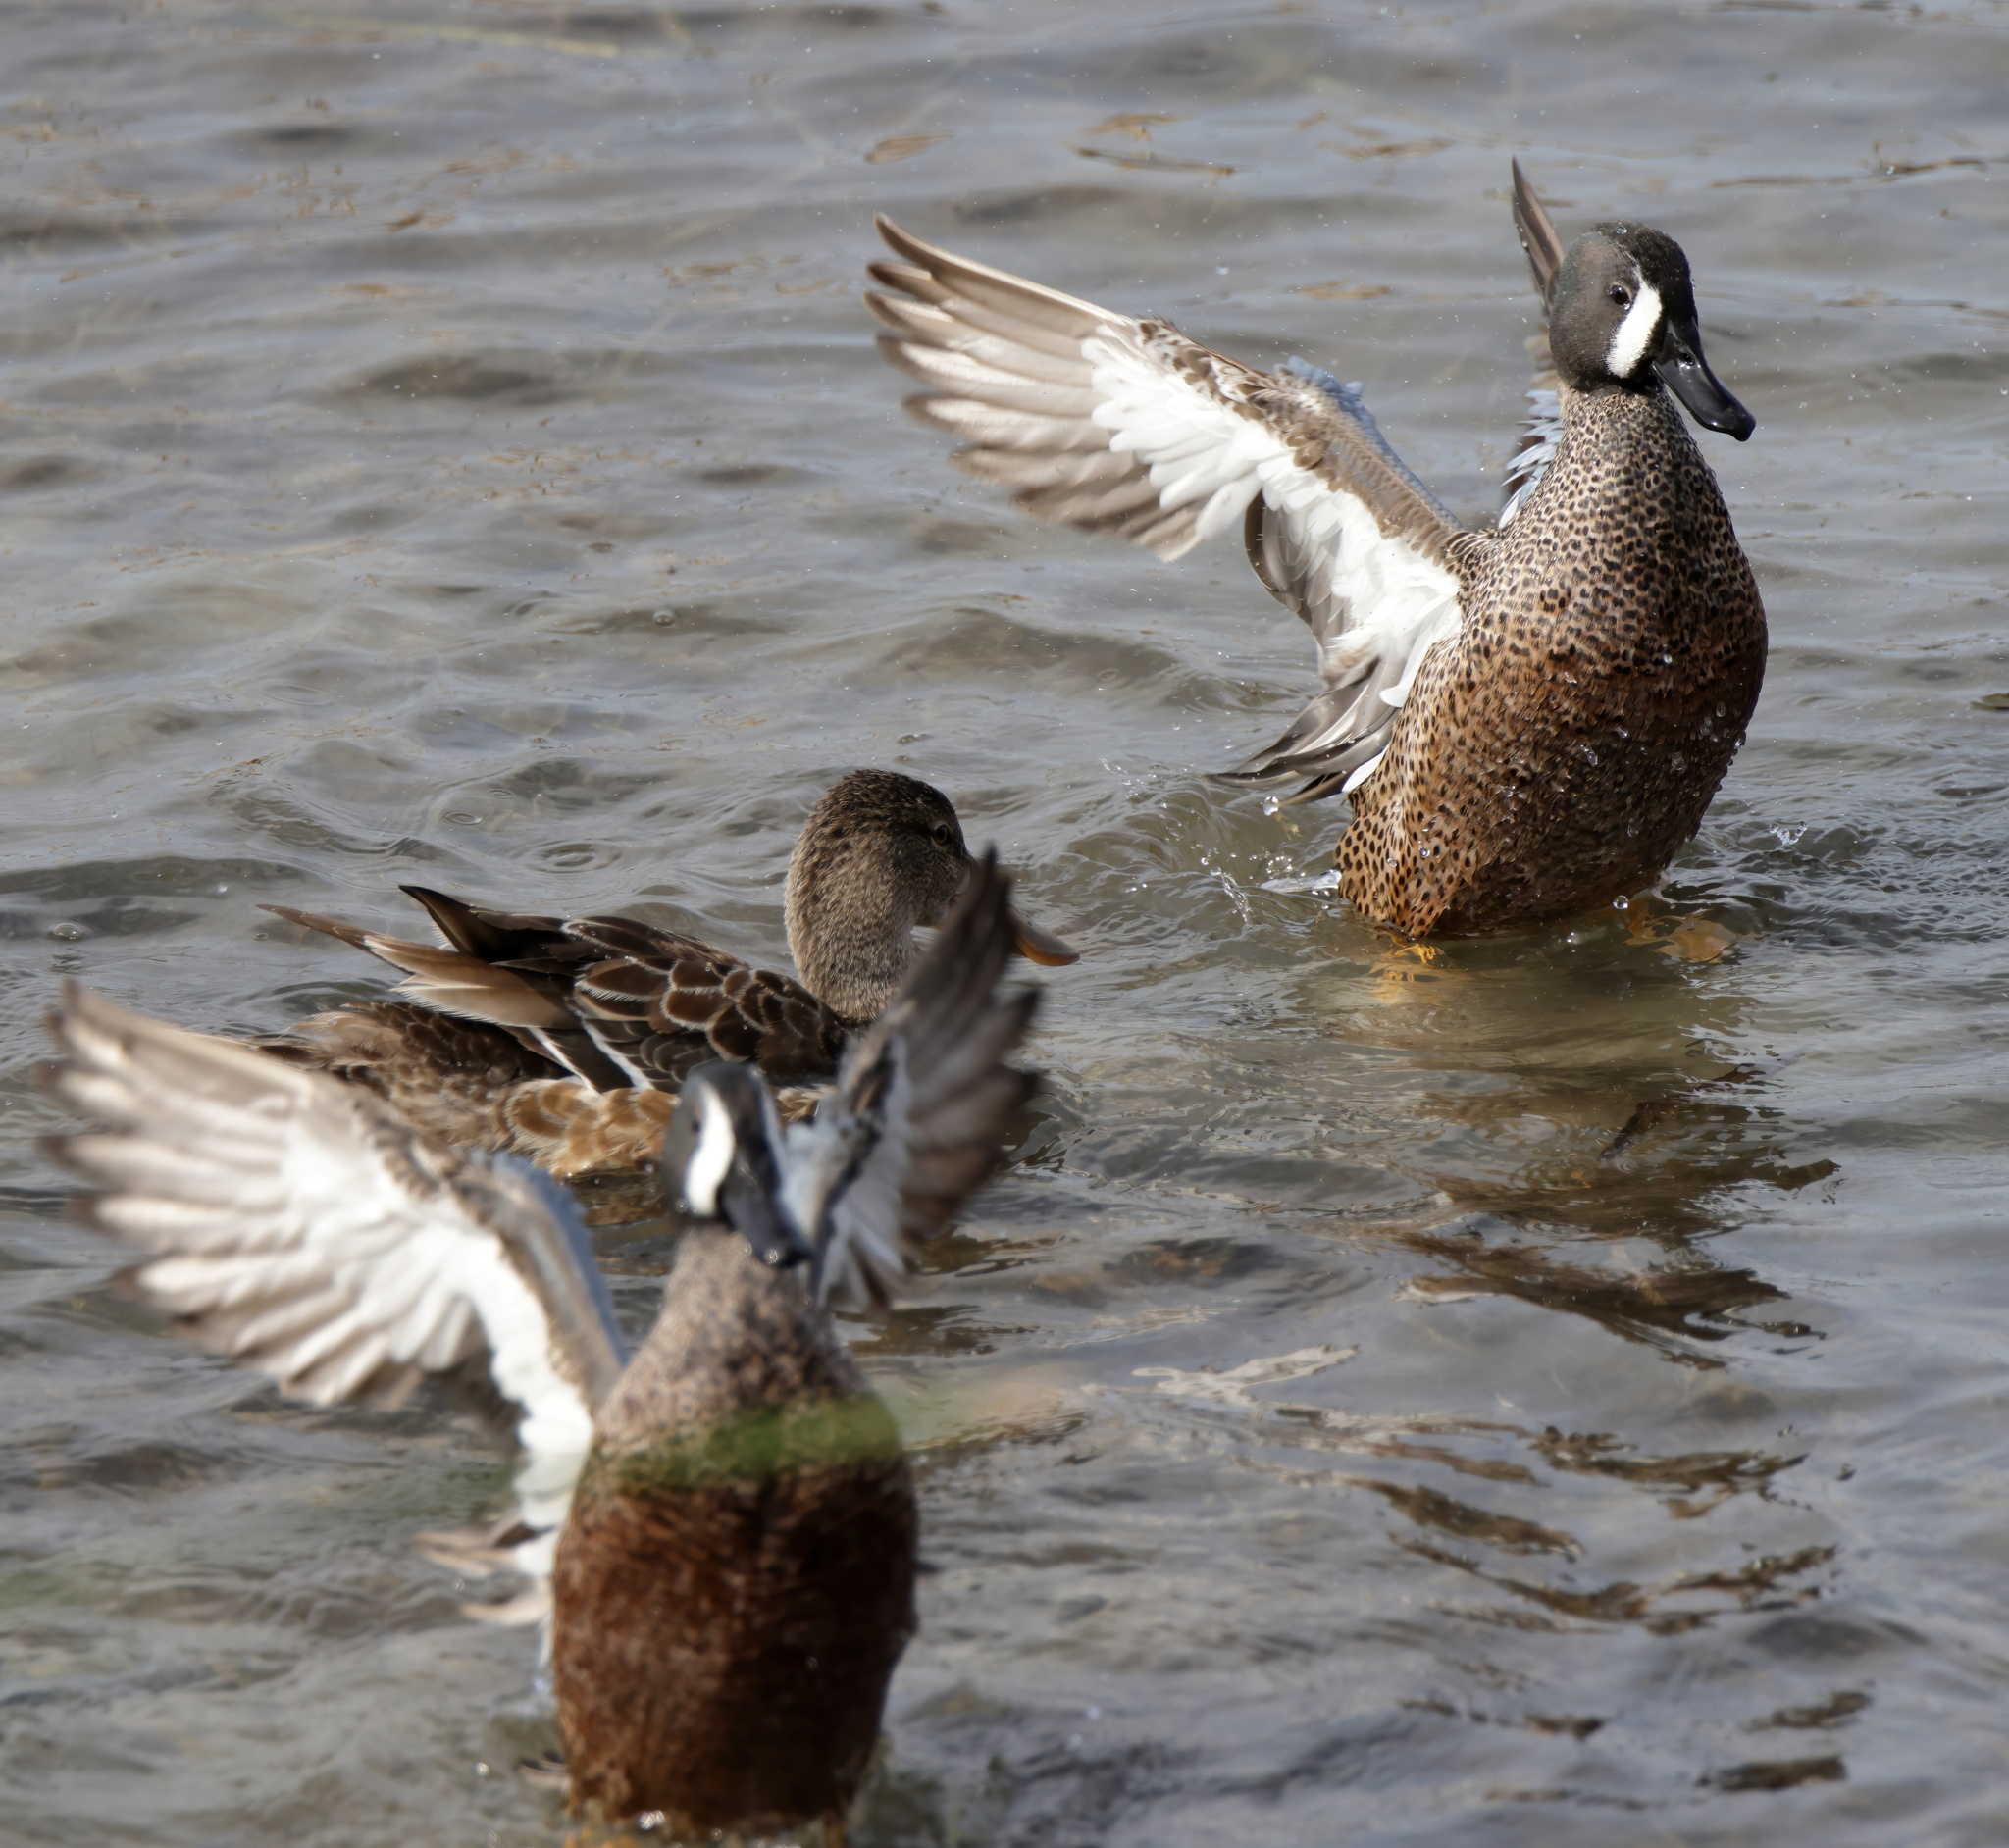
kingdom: Animalia
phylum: Chordata
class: Aves
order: Anseriformes
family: Anatidae
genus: Spatula
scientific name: Spatula discors
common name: Blue-winged teal
